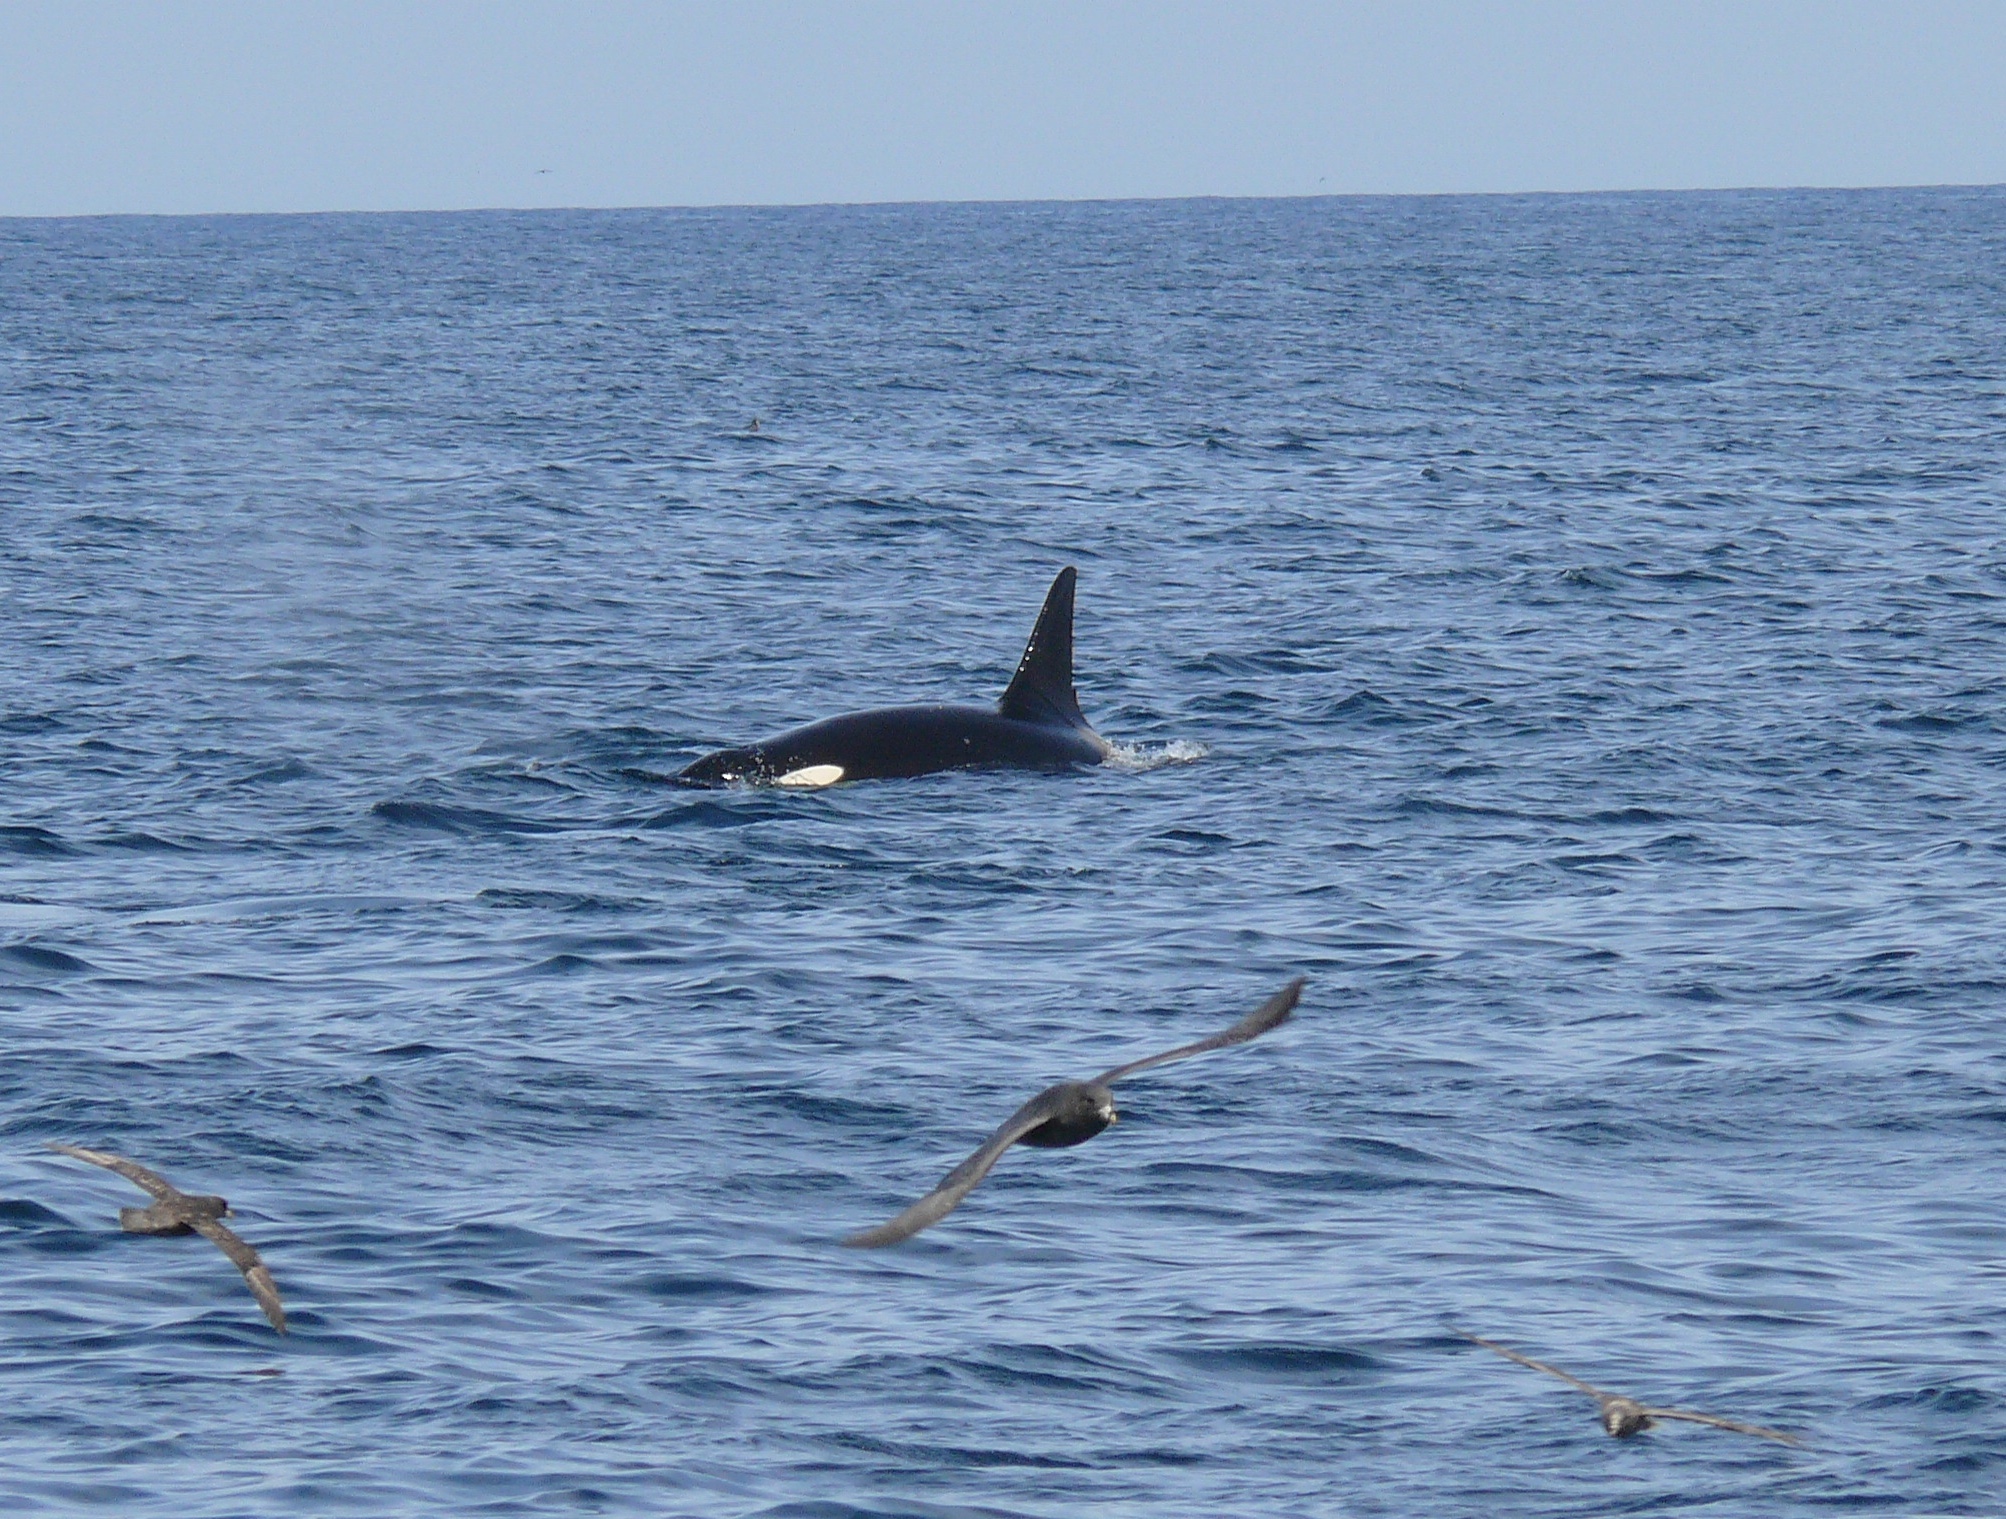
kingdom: Animalia
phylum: Chordata
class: Mammalia
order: Cetacea
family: Delphinidae
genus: Orcinus
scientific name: Orcinus orca
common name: Killer whale
